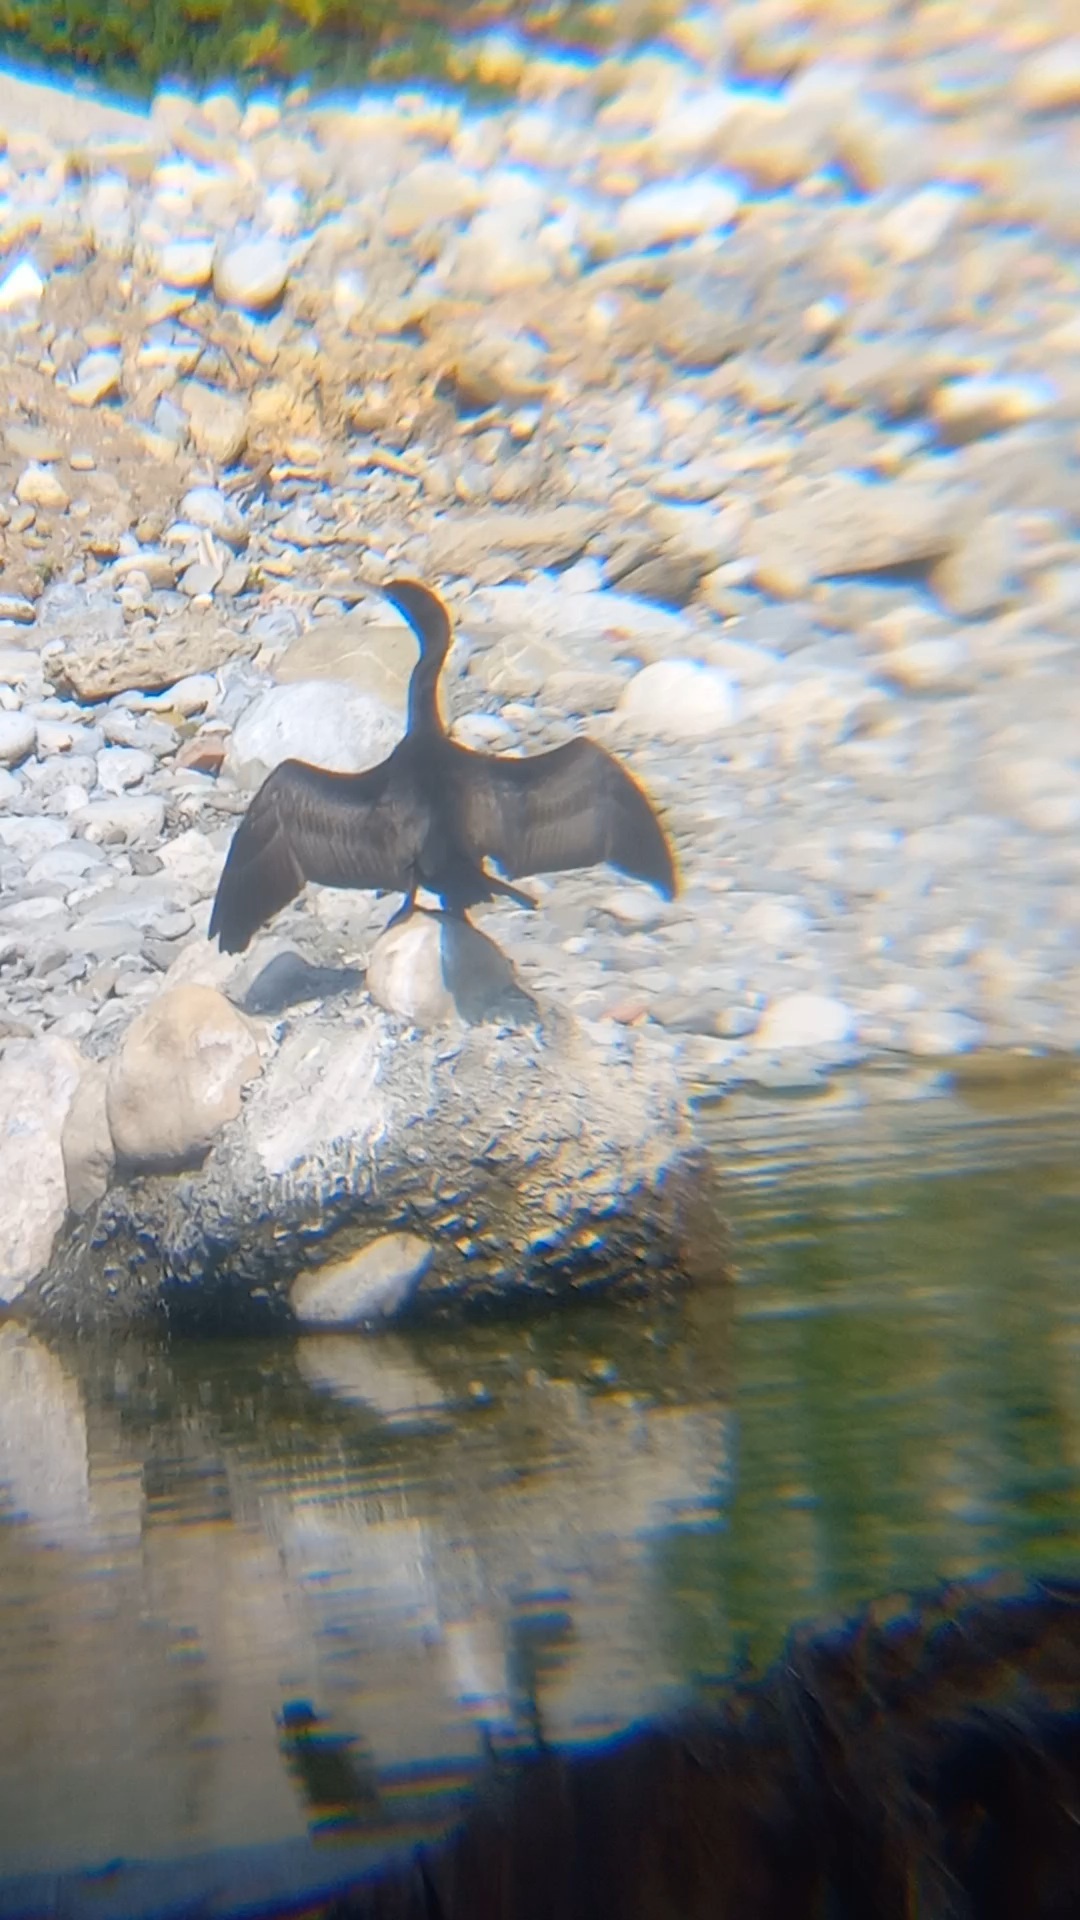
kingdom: Animalia
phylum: Chordata
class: Aves
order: Suliformes
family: Phalacrocoracidae
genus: Phalacrocorax
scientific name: Phalacrocorax brasilianus
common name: Neotropic cormorant
